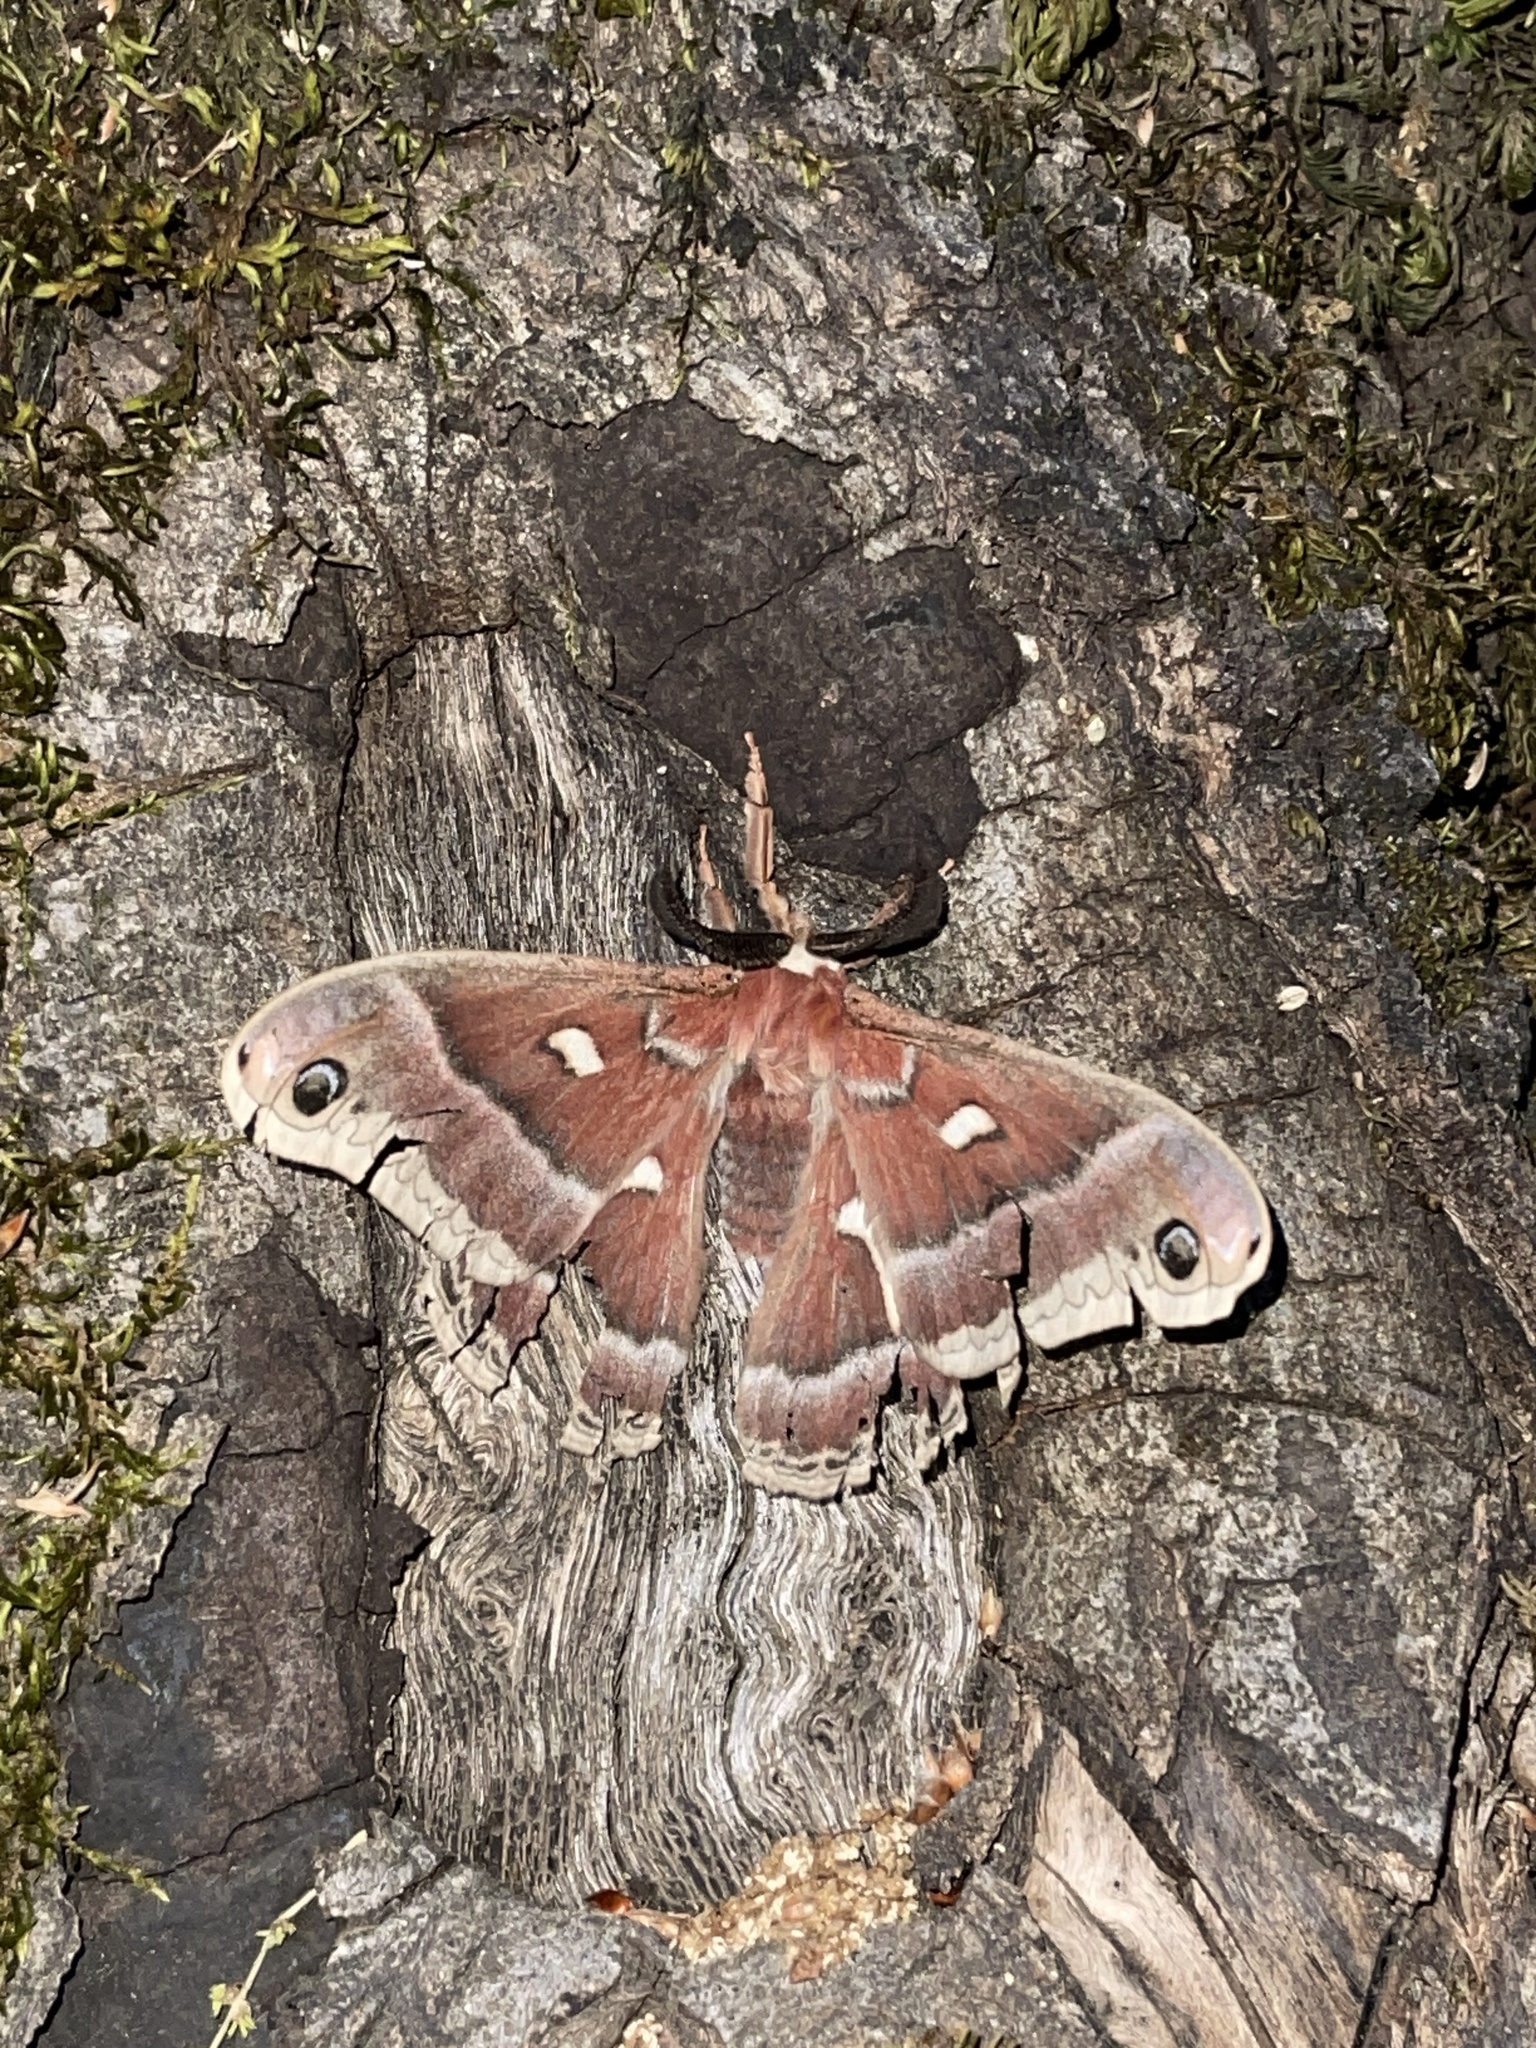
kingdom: Animalia
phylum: Arthropoda
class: Insecta
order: Lepidoptera
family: Saturniidae
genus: Hyalophora
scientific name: Hyalophora euryalus
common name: Ceanothus silkmoth
